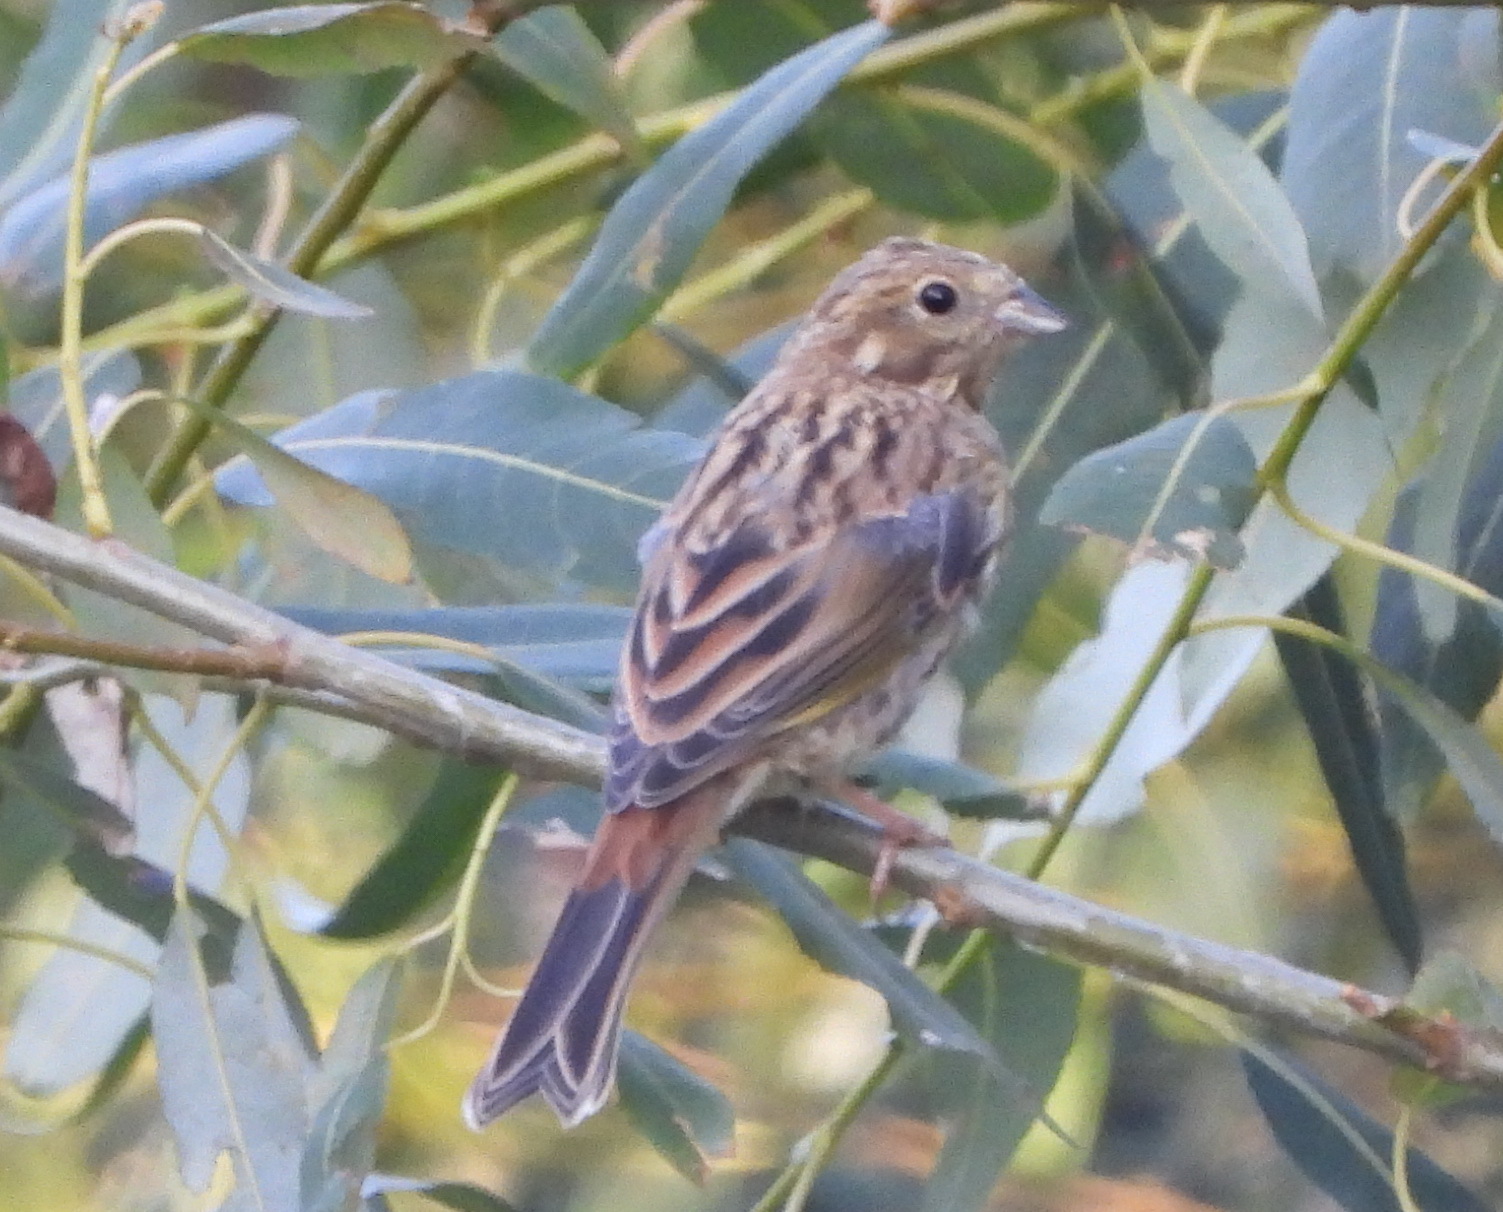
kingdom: Animalia
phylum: Chordata
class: Aves
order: Passeriformes
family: Emberizidae
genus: Emberiza
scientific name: Emberiza citrinella
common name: Yellowhammer
